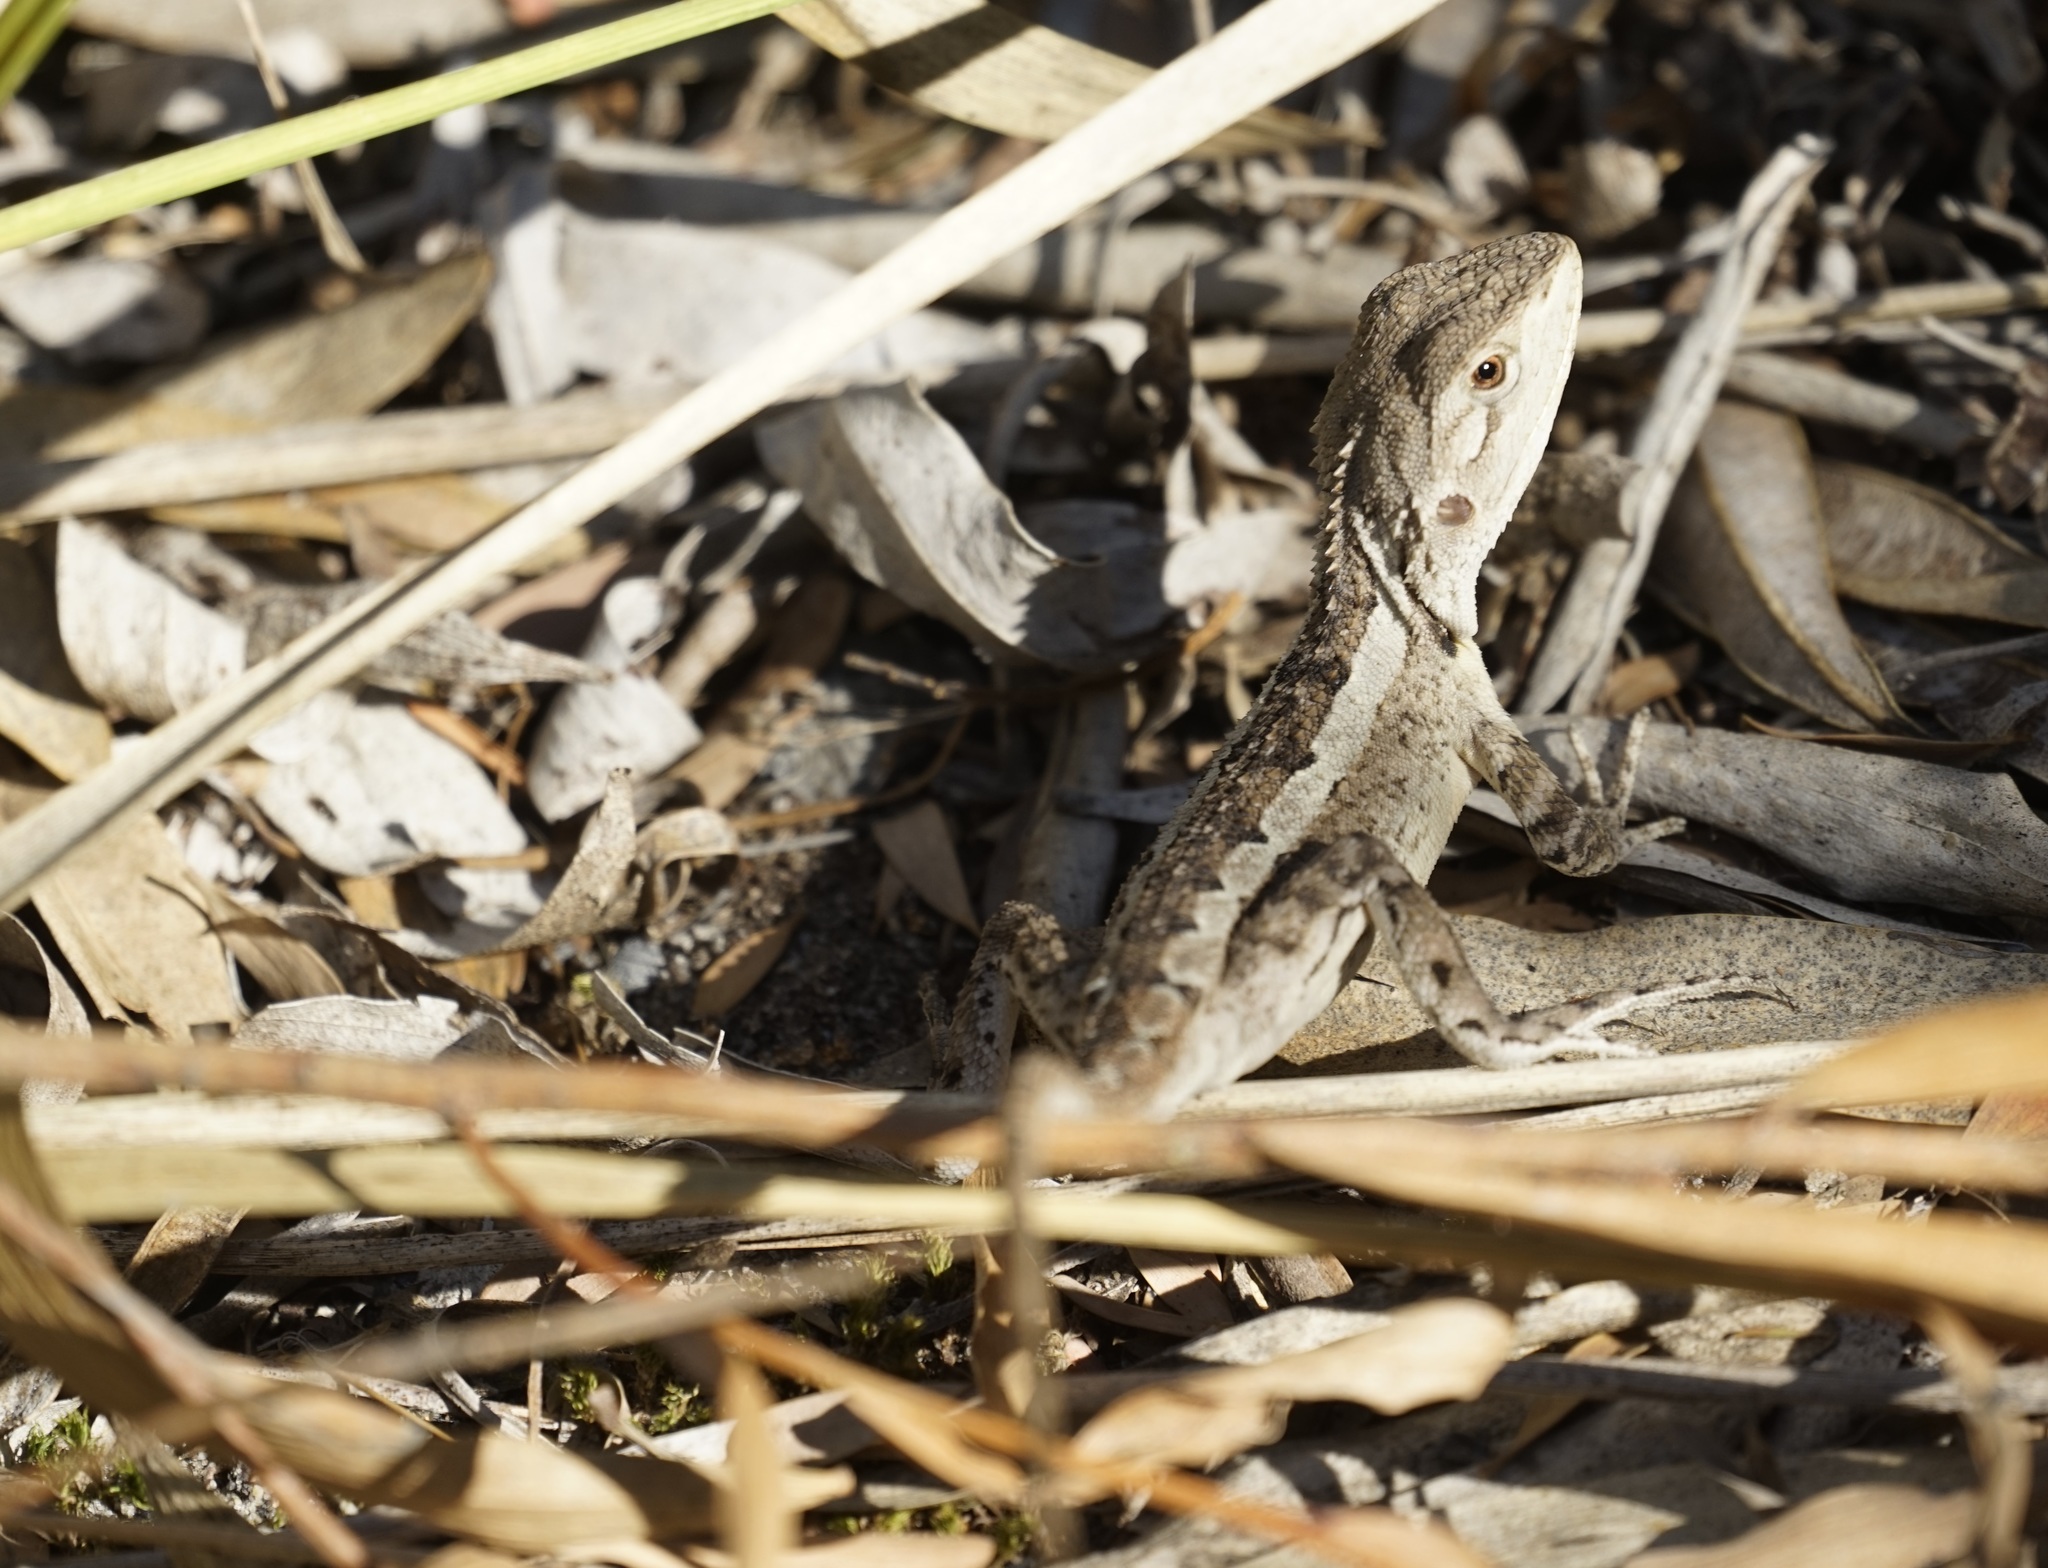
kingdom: Animalia
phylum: Chordata
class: Squamata
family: Agamidae
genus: Amphibolurus
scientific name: Amphibolurus muricatus
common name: Jacky lizard
